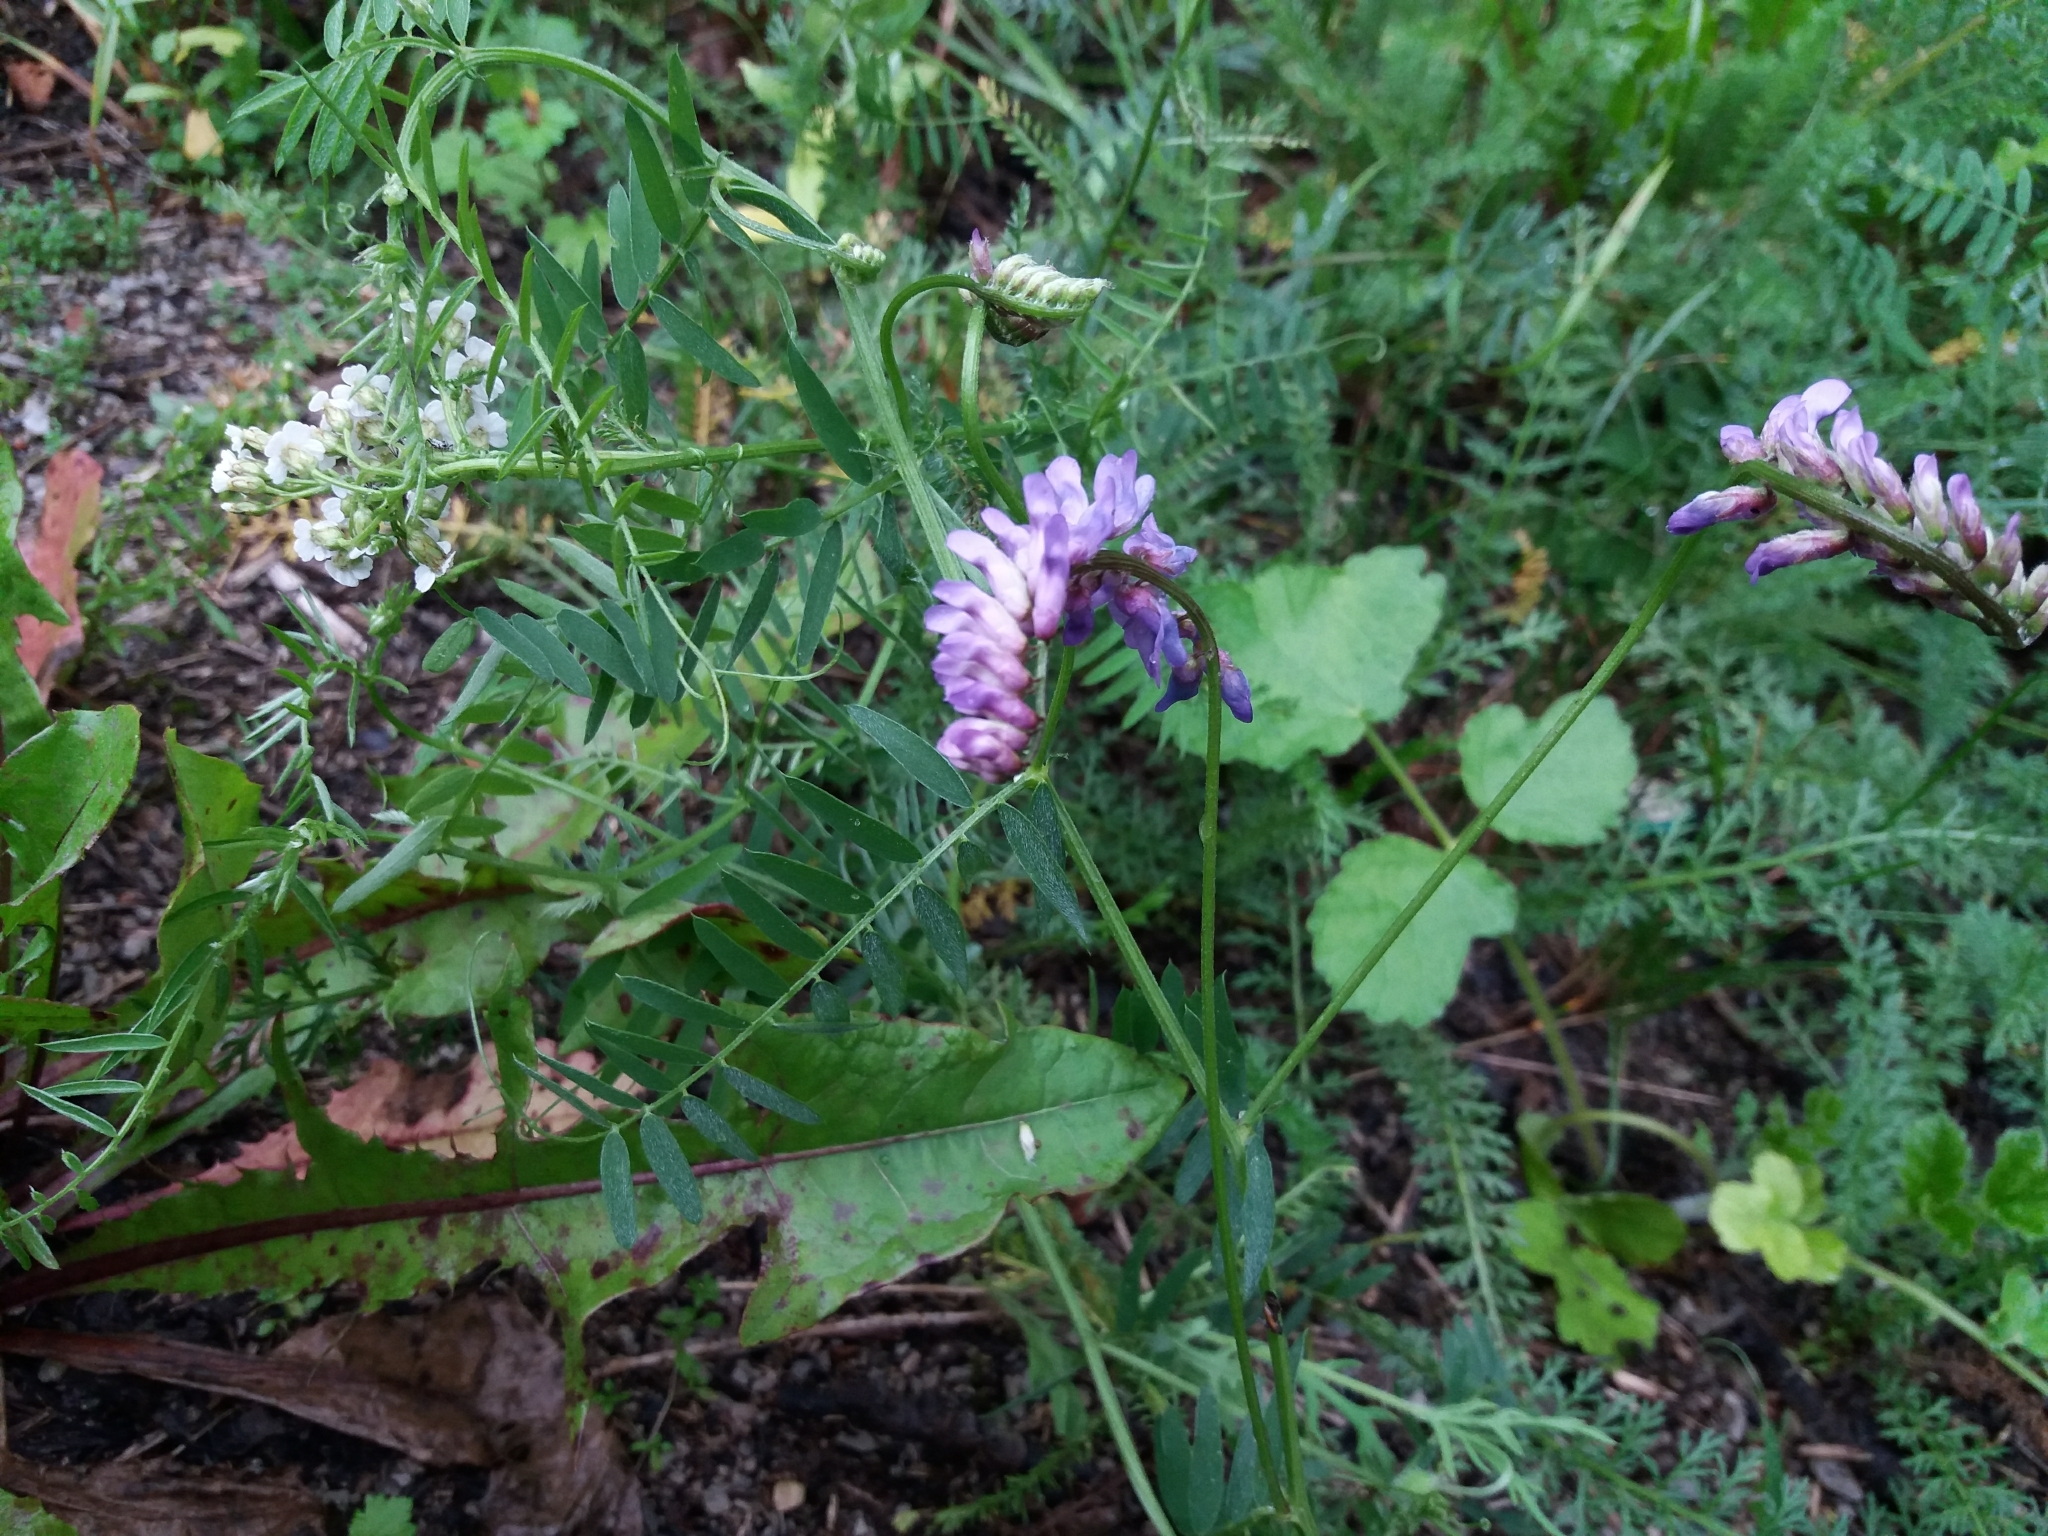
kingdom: Plantae
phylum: Tracheophyta
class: Magnoliopsida
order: Fabales
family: Fabaceae
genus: Vicia
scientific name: Vicia cracca
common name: Bird vetch
